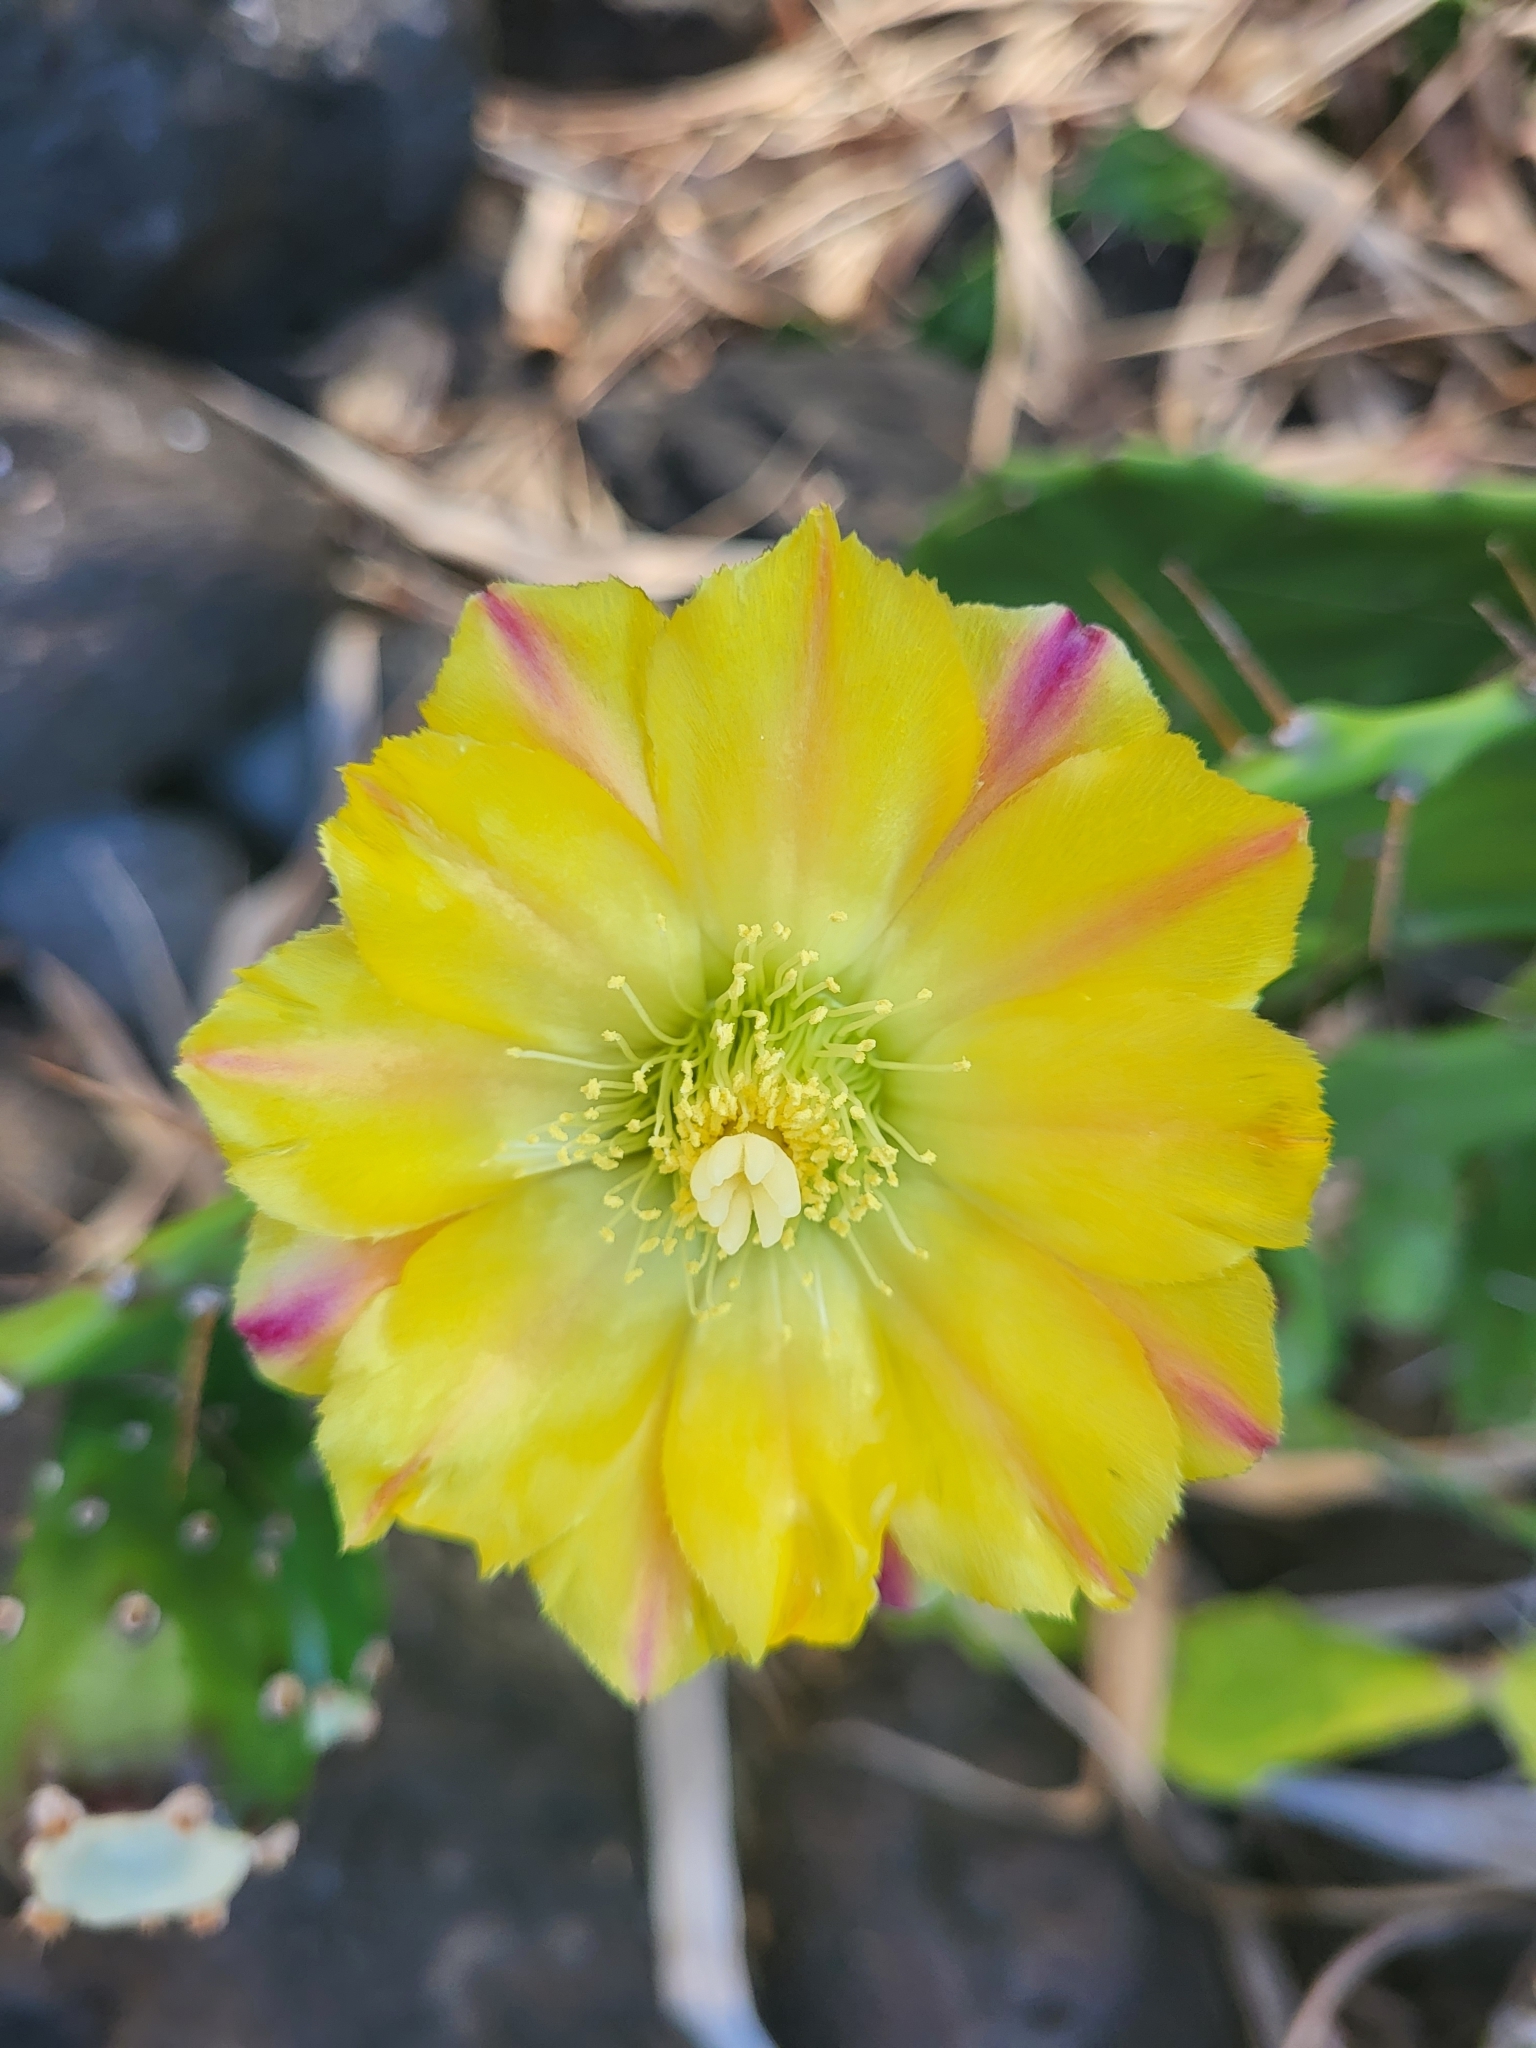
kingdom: Plantae
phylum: Tracheophyta
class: Magnoliopsida
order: Caryophyllales
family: Cactaceae
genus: Opuntia
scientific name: Opuntia monacantha
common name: Common pricklypear
